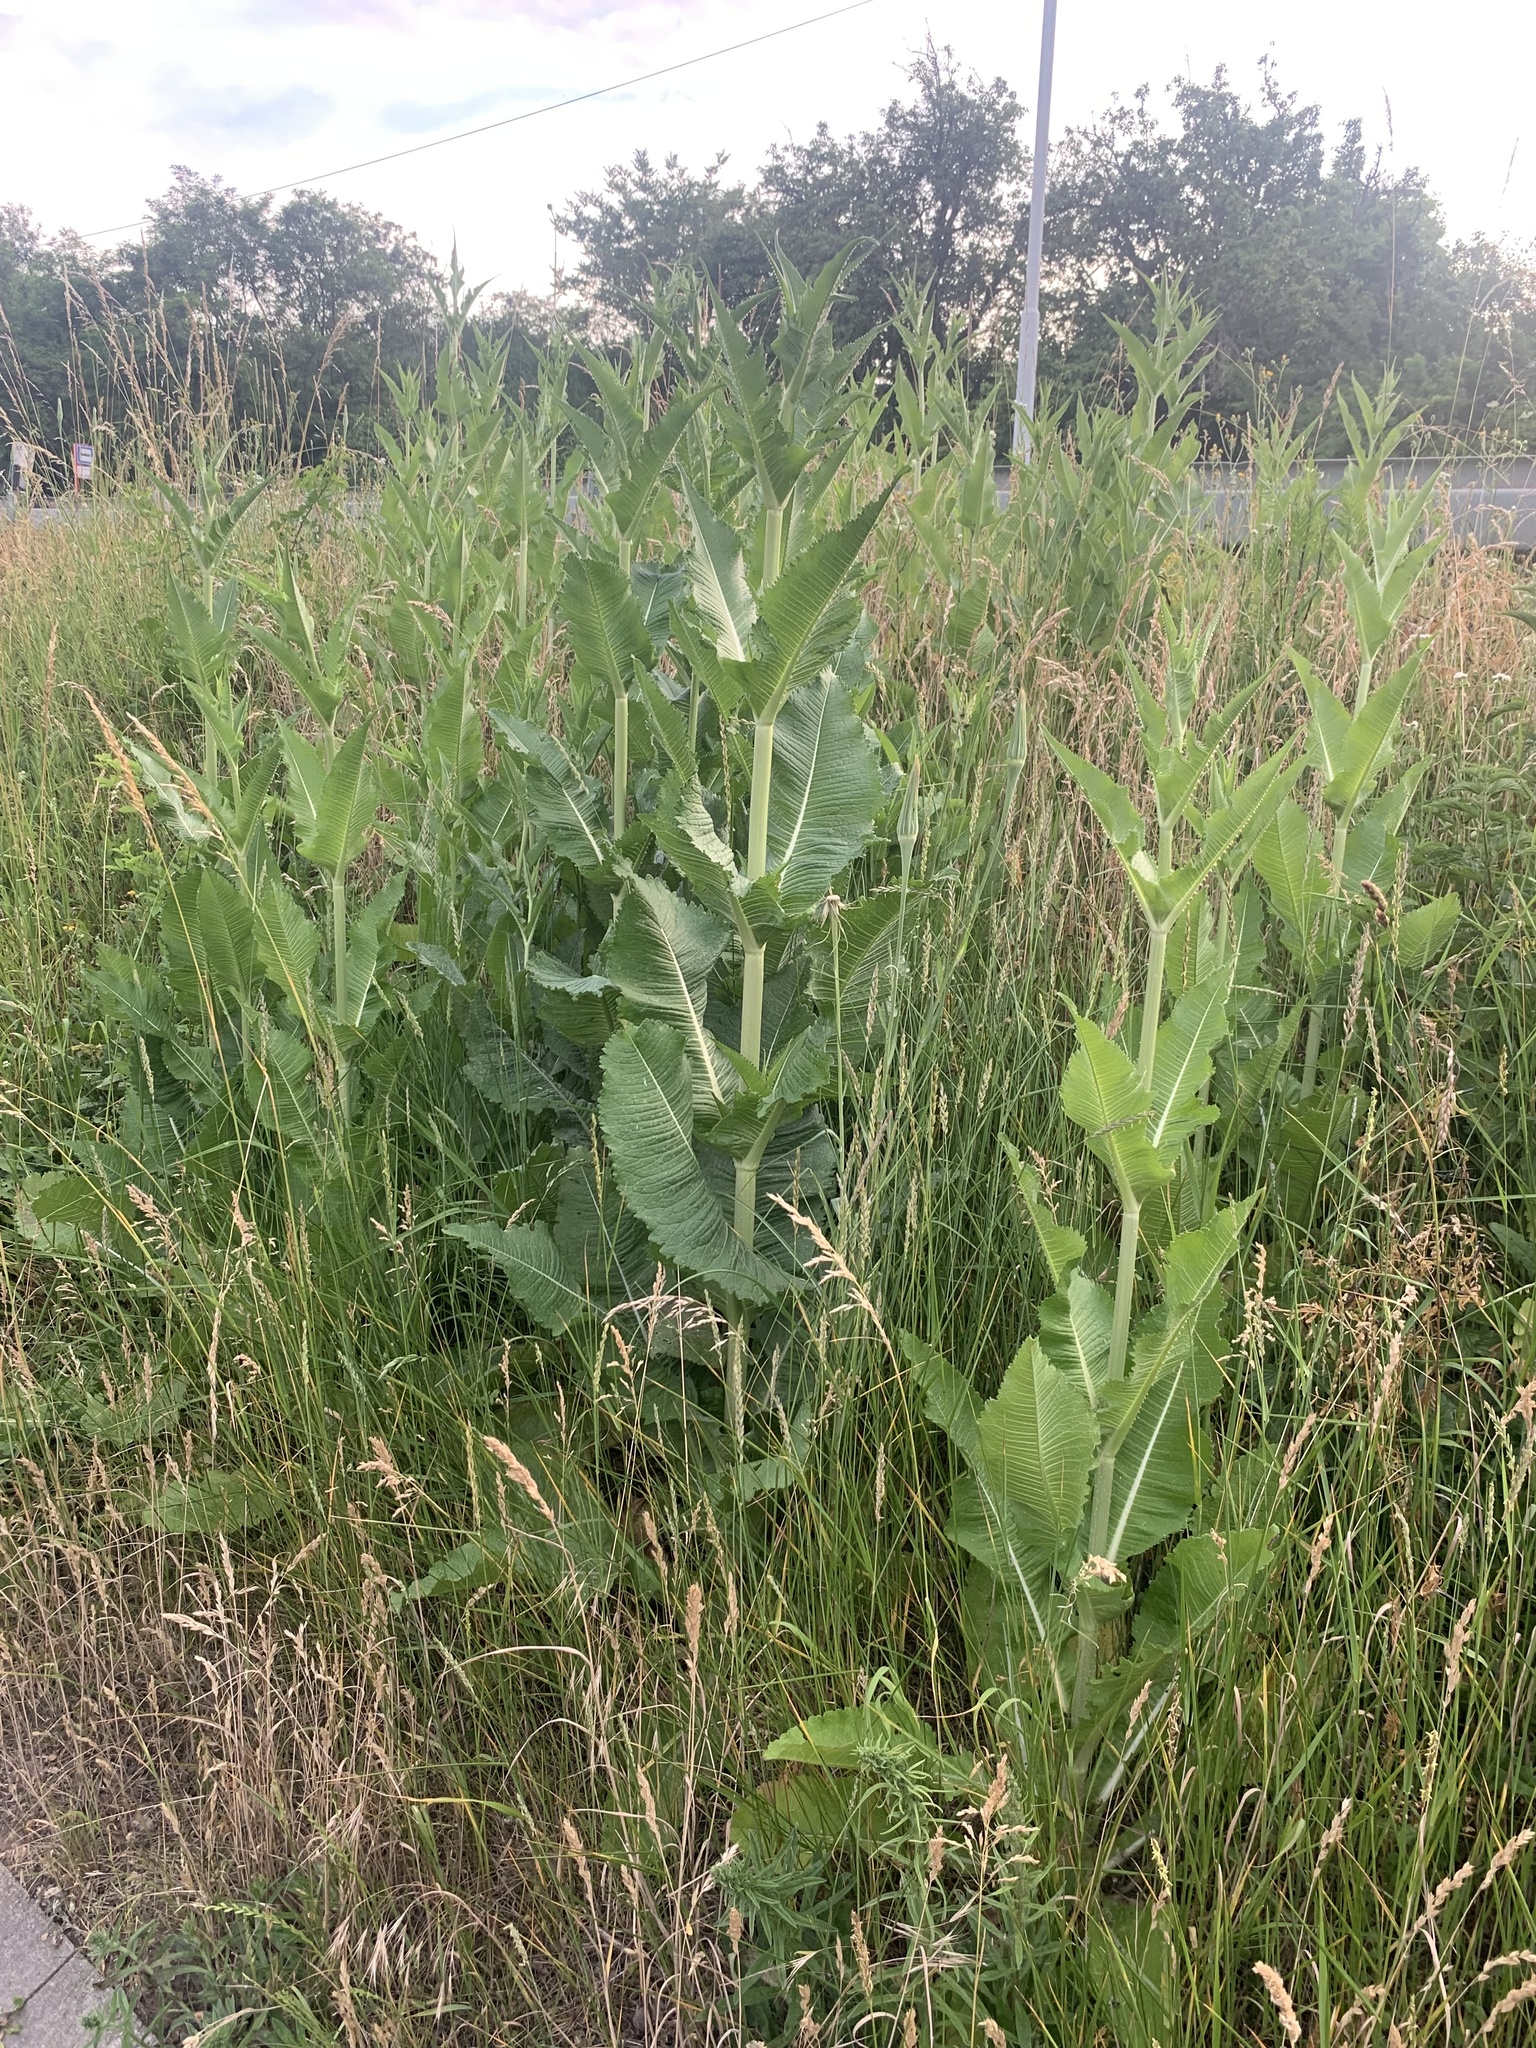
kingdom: Plantae
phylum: Tracheophyta
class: Magnoliopsida
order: Dipsacales
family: Caprifoliaceae
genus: Dipsacus
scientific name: Dipsacus laciniatus
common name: Cut-leaved teasel
